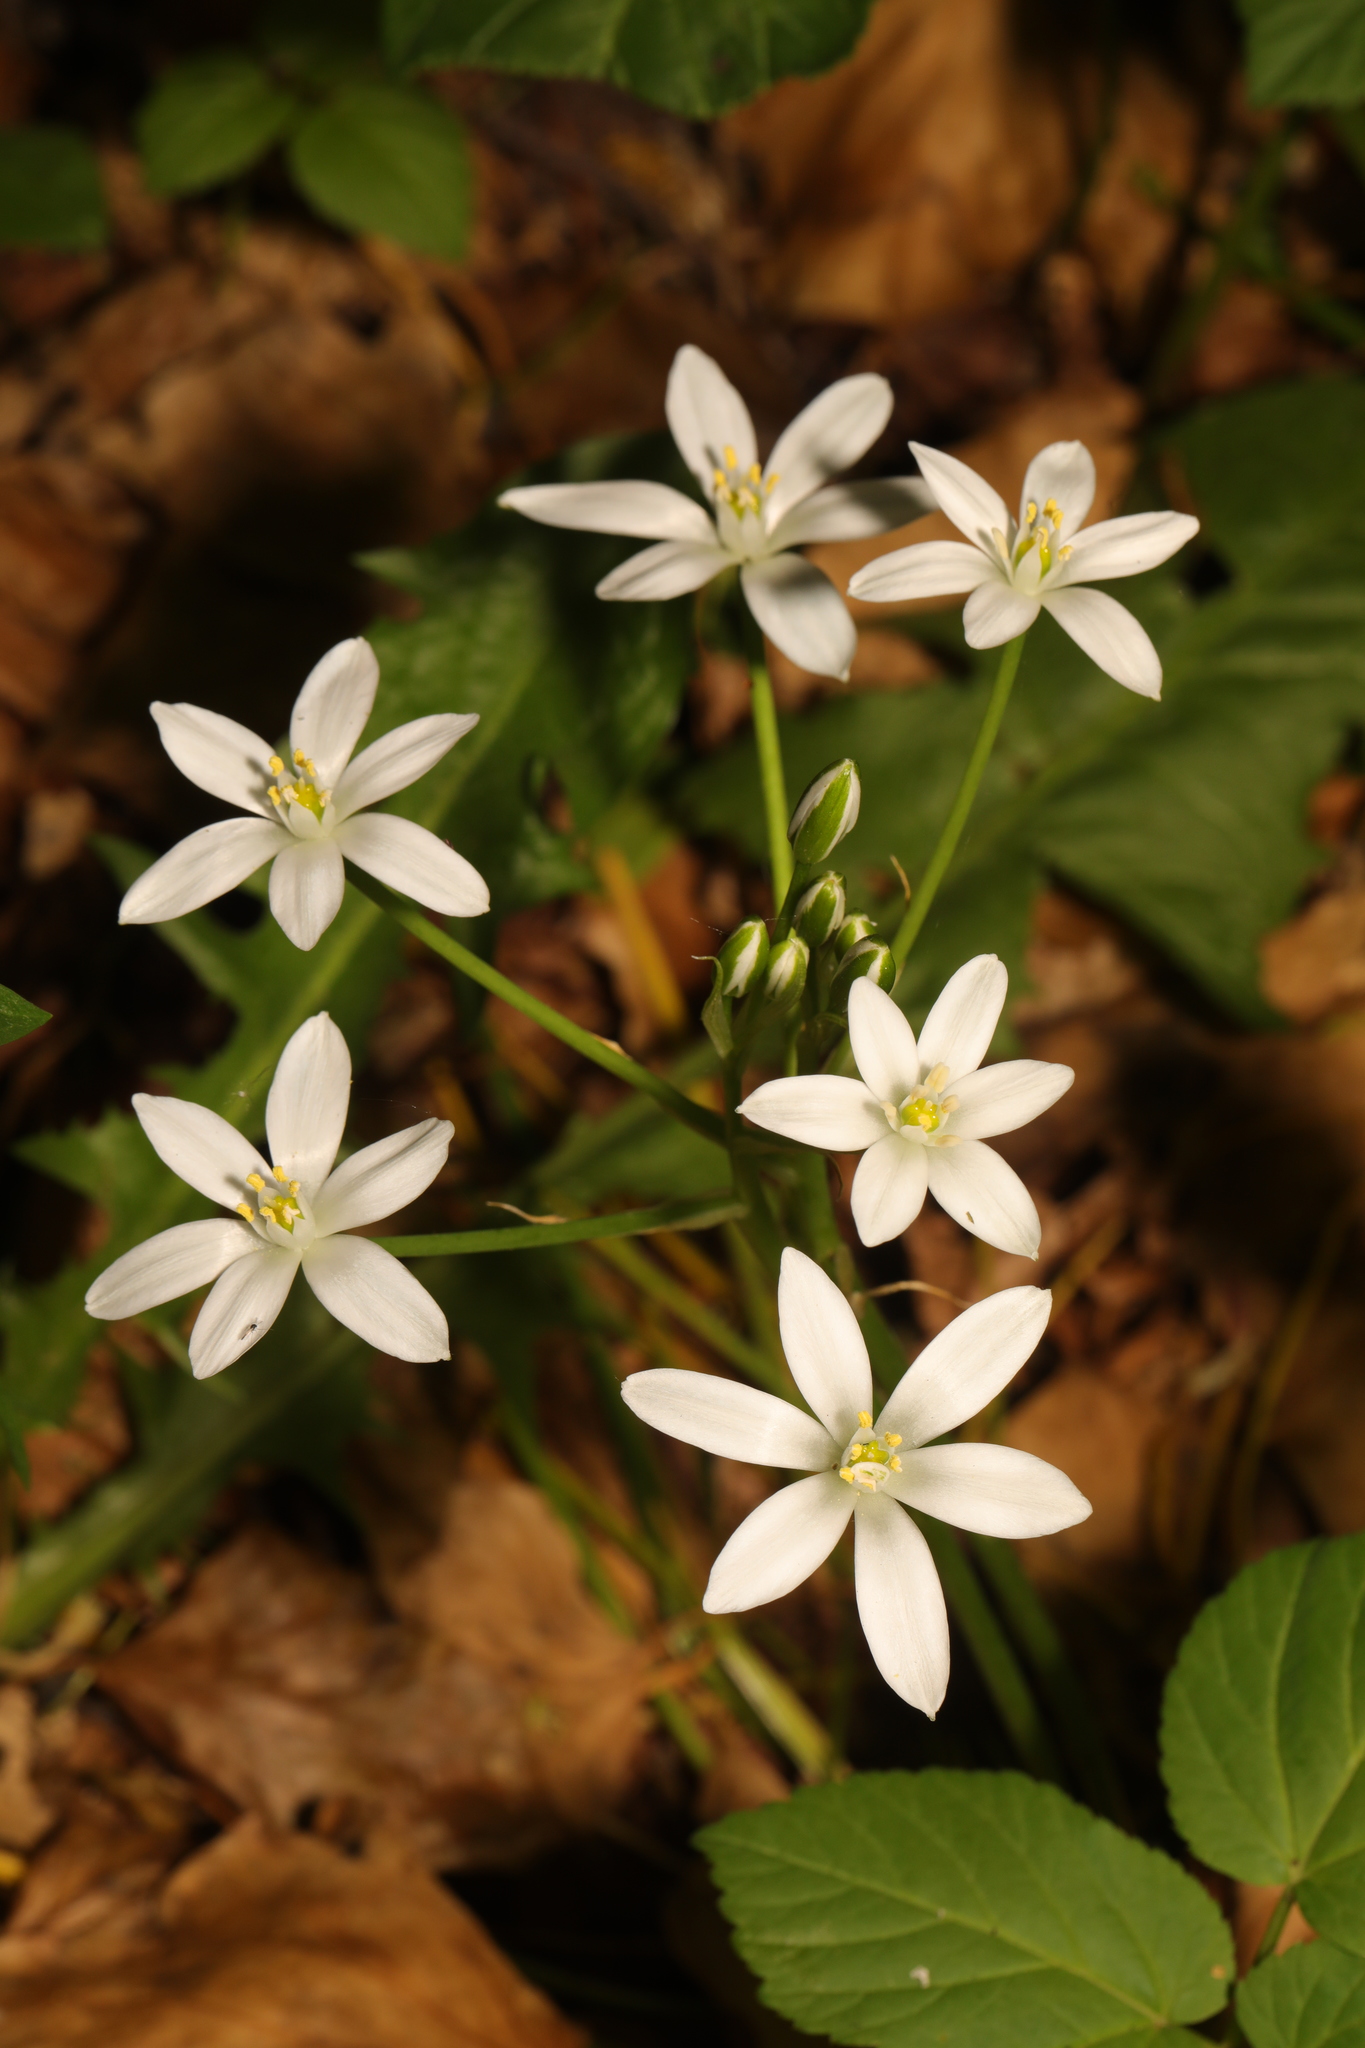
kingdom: Plantae
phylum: Tracheophyta
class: Liliopsida
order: Asparagales
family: Asparagaceae
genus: Ornithogalum
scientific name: Ornithogalum umbellatum
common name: Garden star-of-bethlehem
